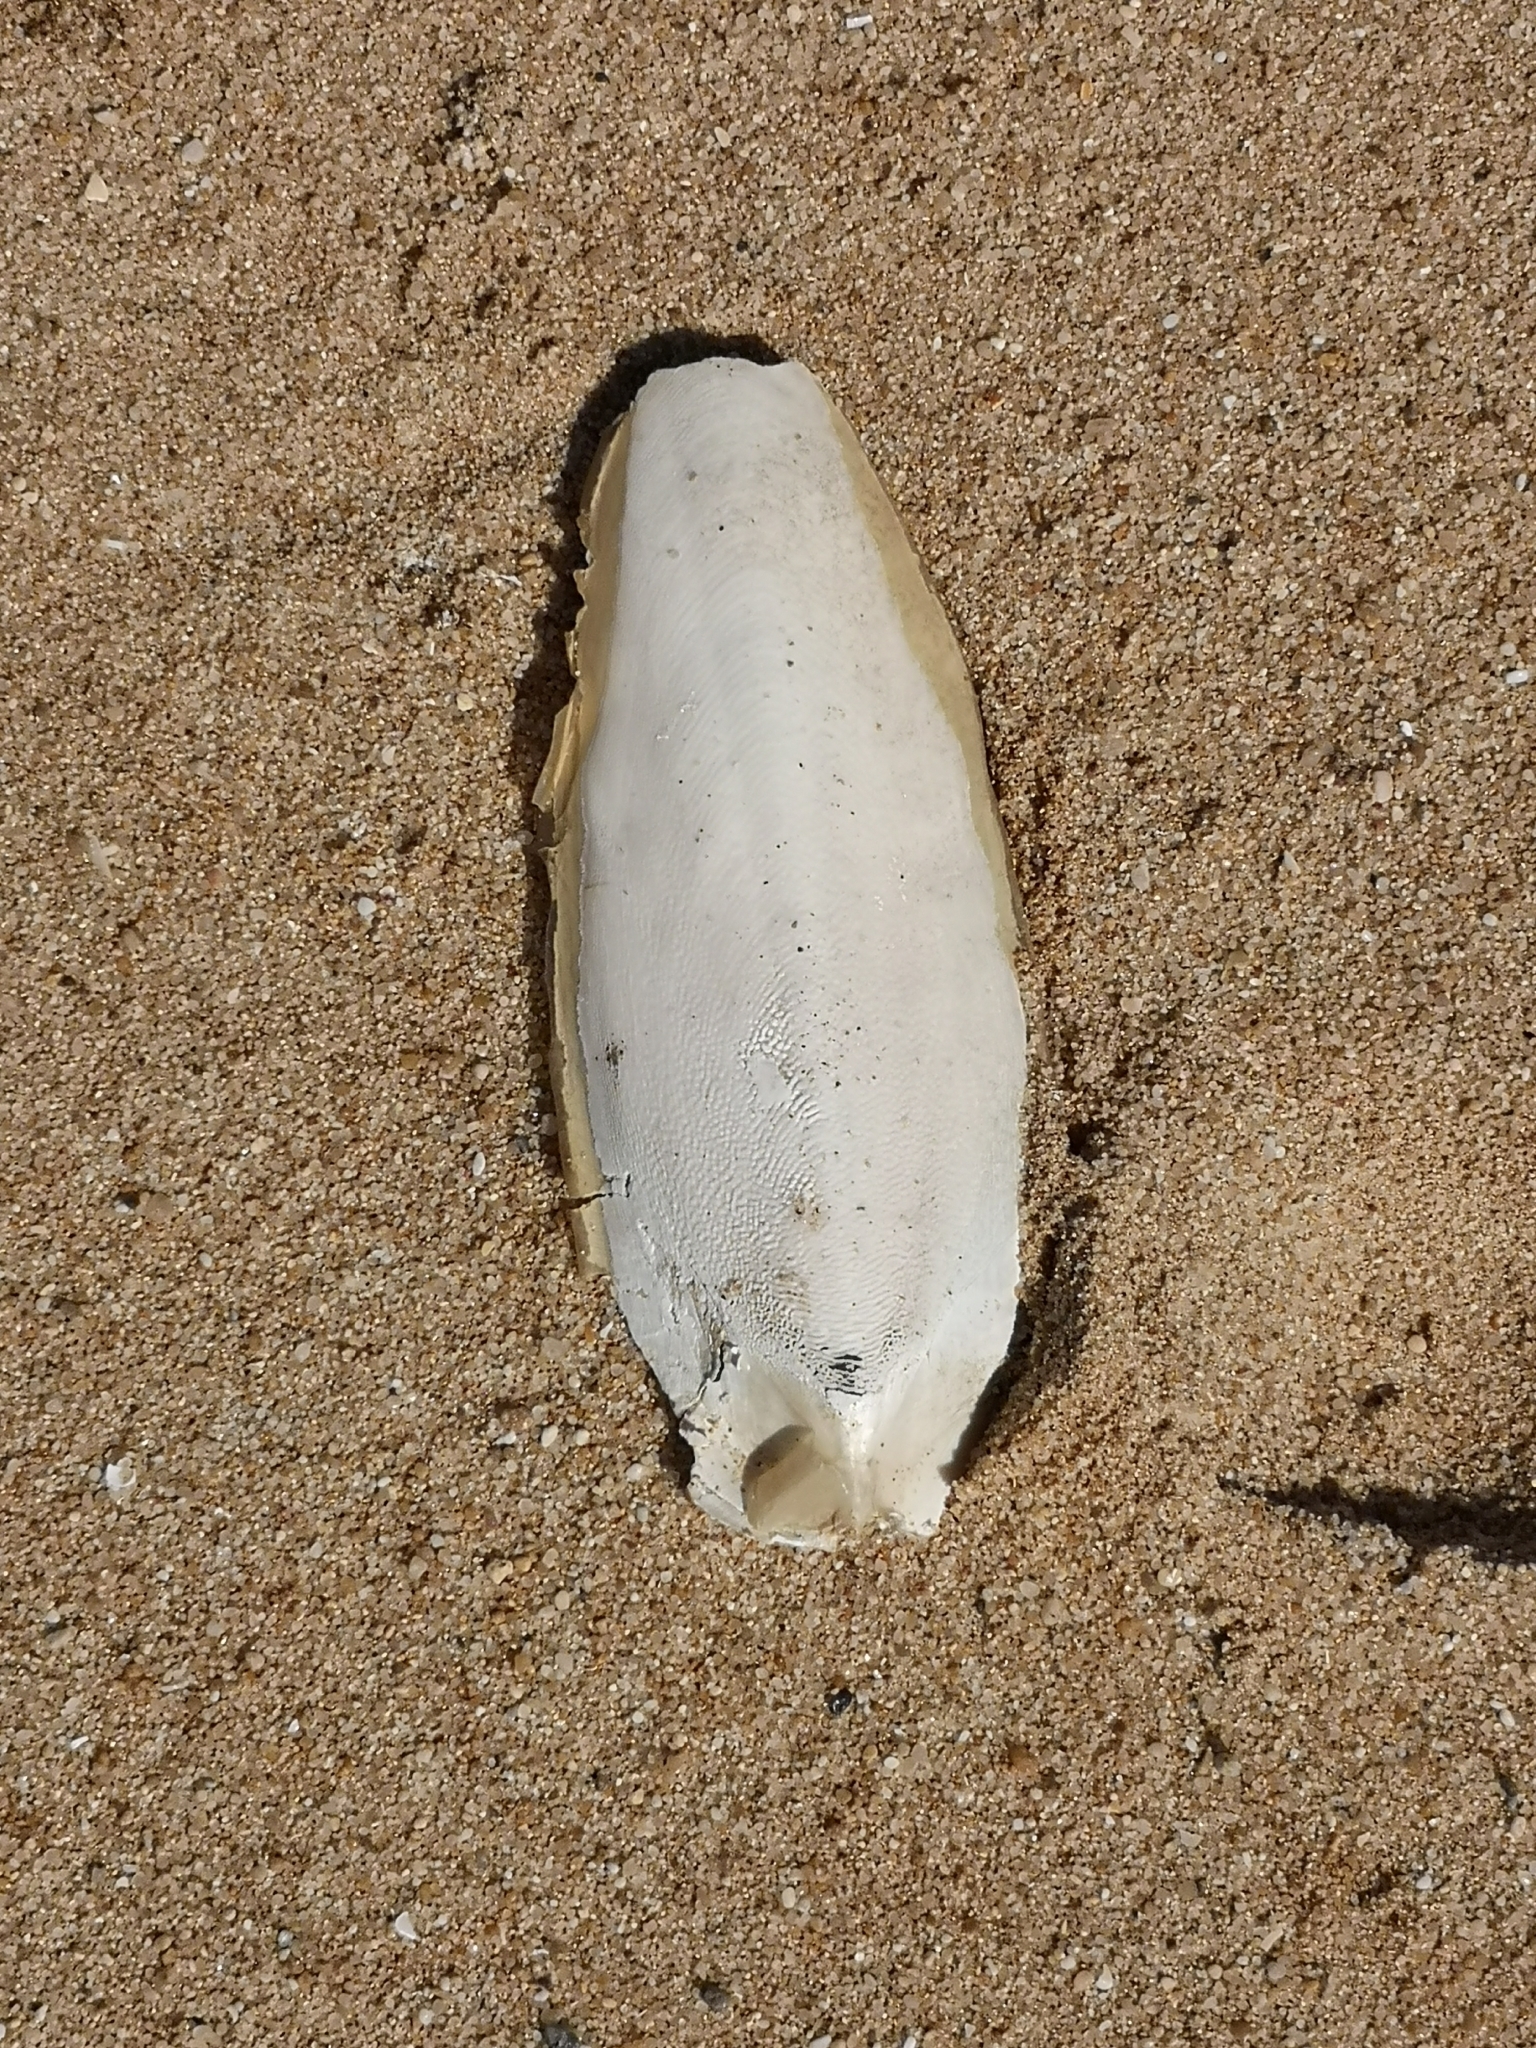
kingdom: Animalia
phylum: Mollusca
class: Cephalopoda
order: Sepiida
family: Sepiidae
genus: Sepia
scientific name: Sepia officinalis
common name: Common cuttlefish
